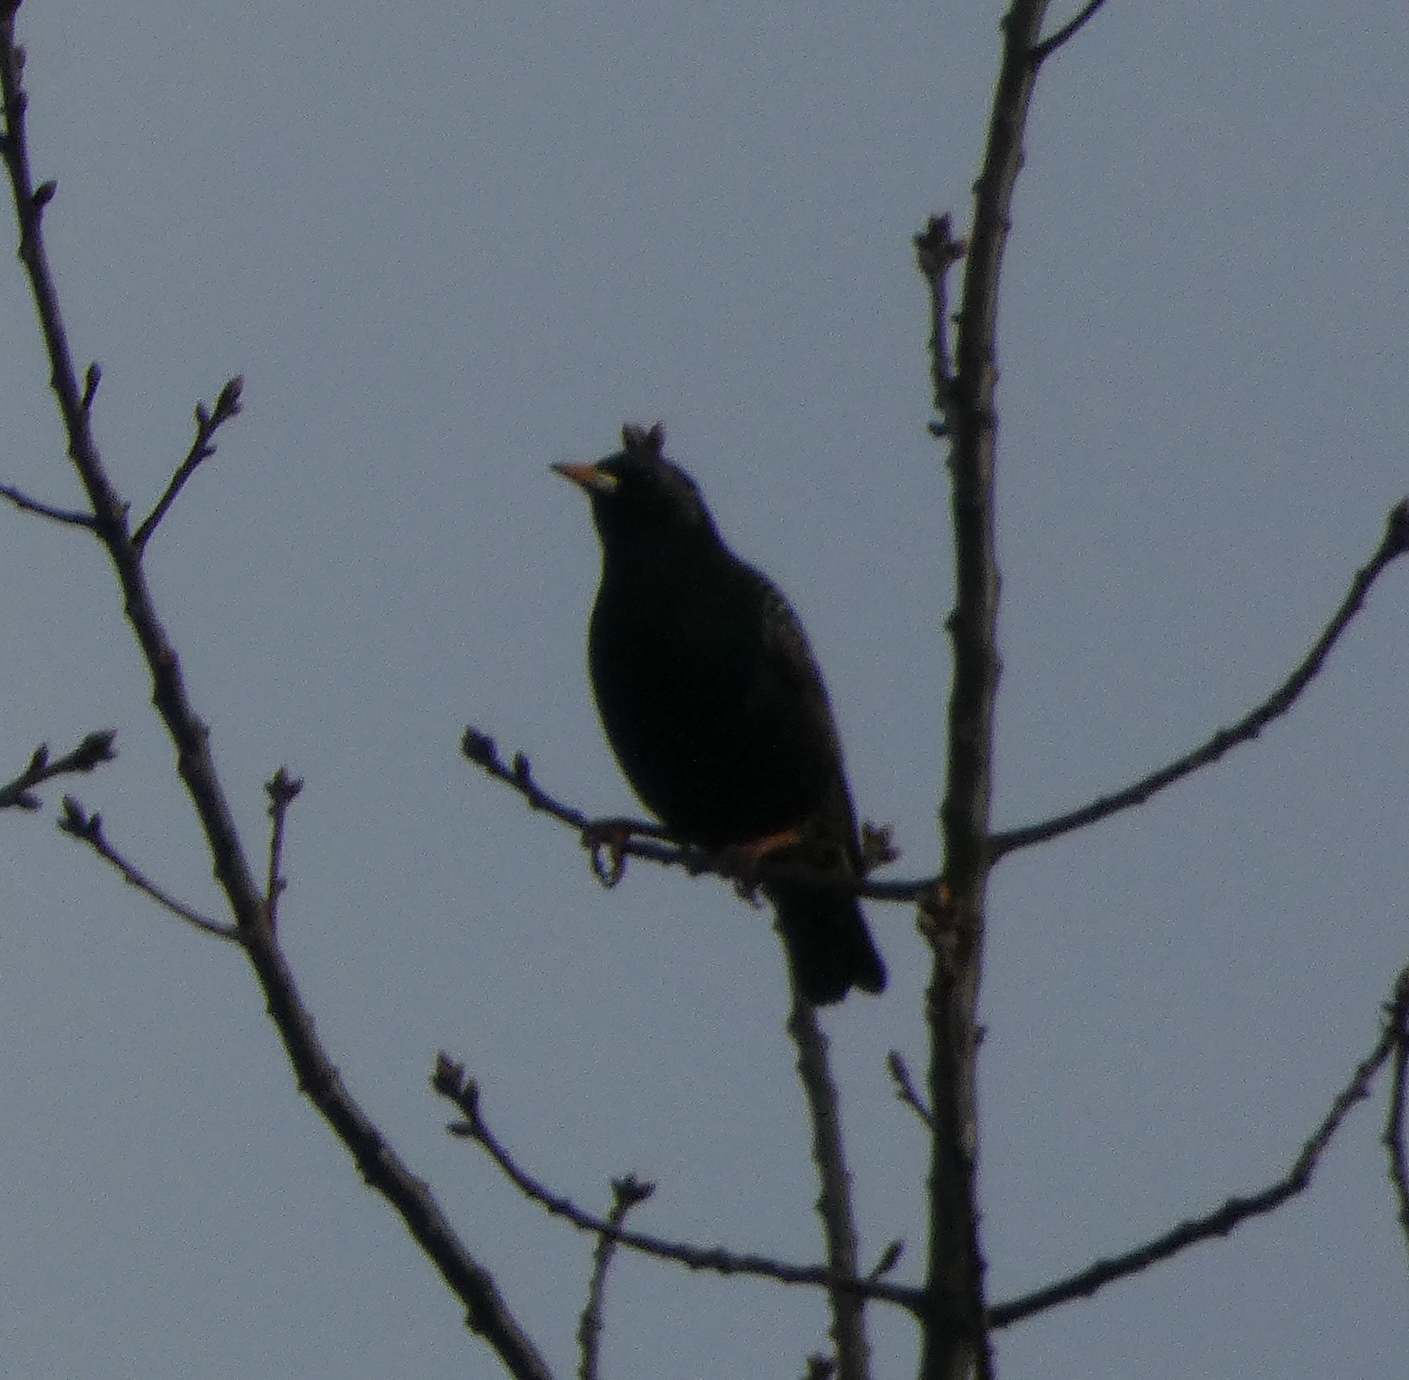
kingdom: Animalia
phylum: Chordata
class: Aves
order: Passeriformes
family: Sturnidae
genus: Sturnus
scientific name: Sturnus vulgaris
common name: Common starling
